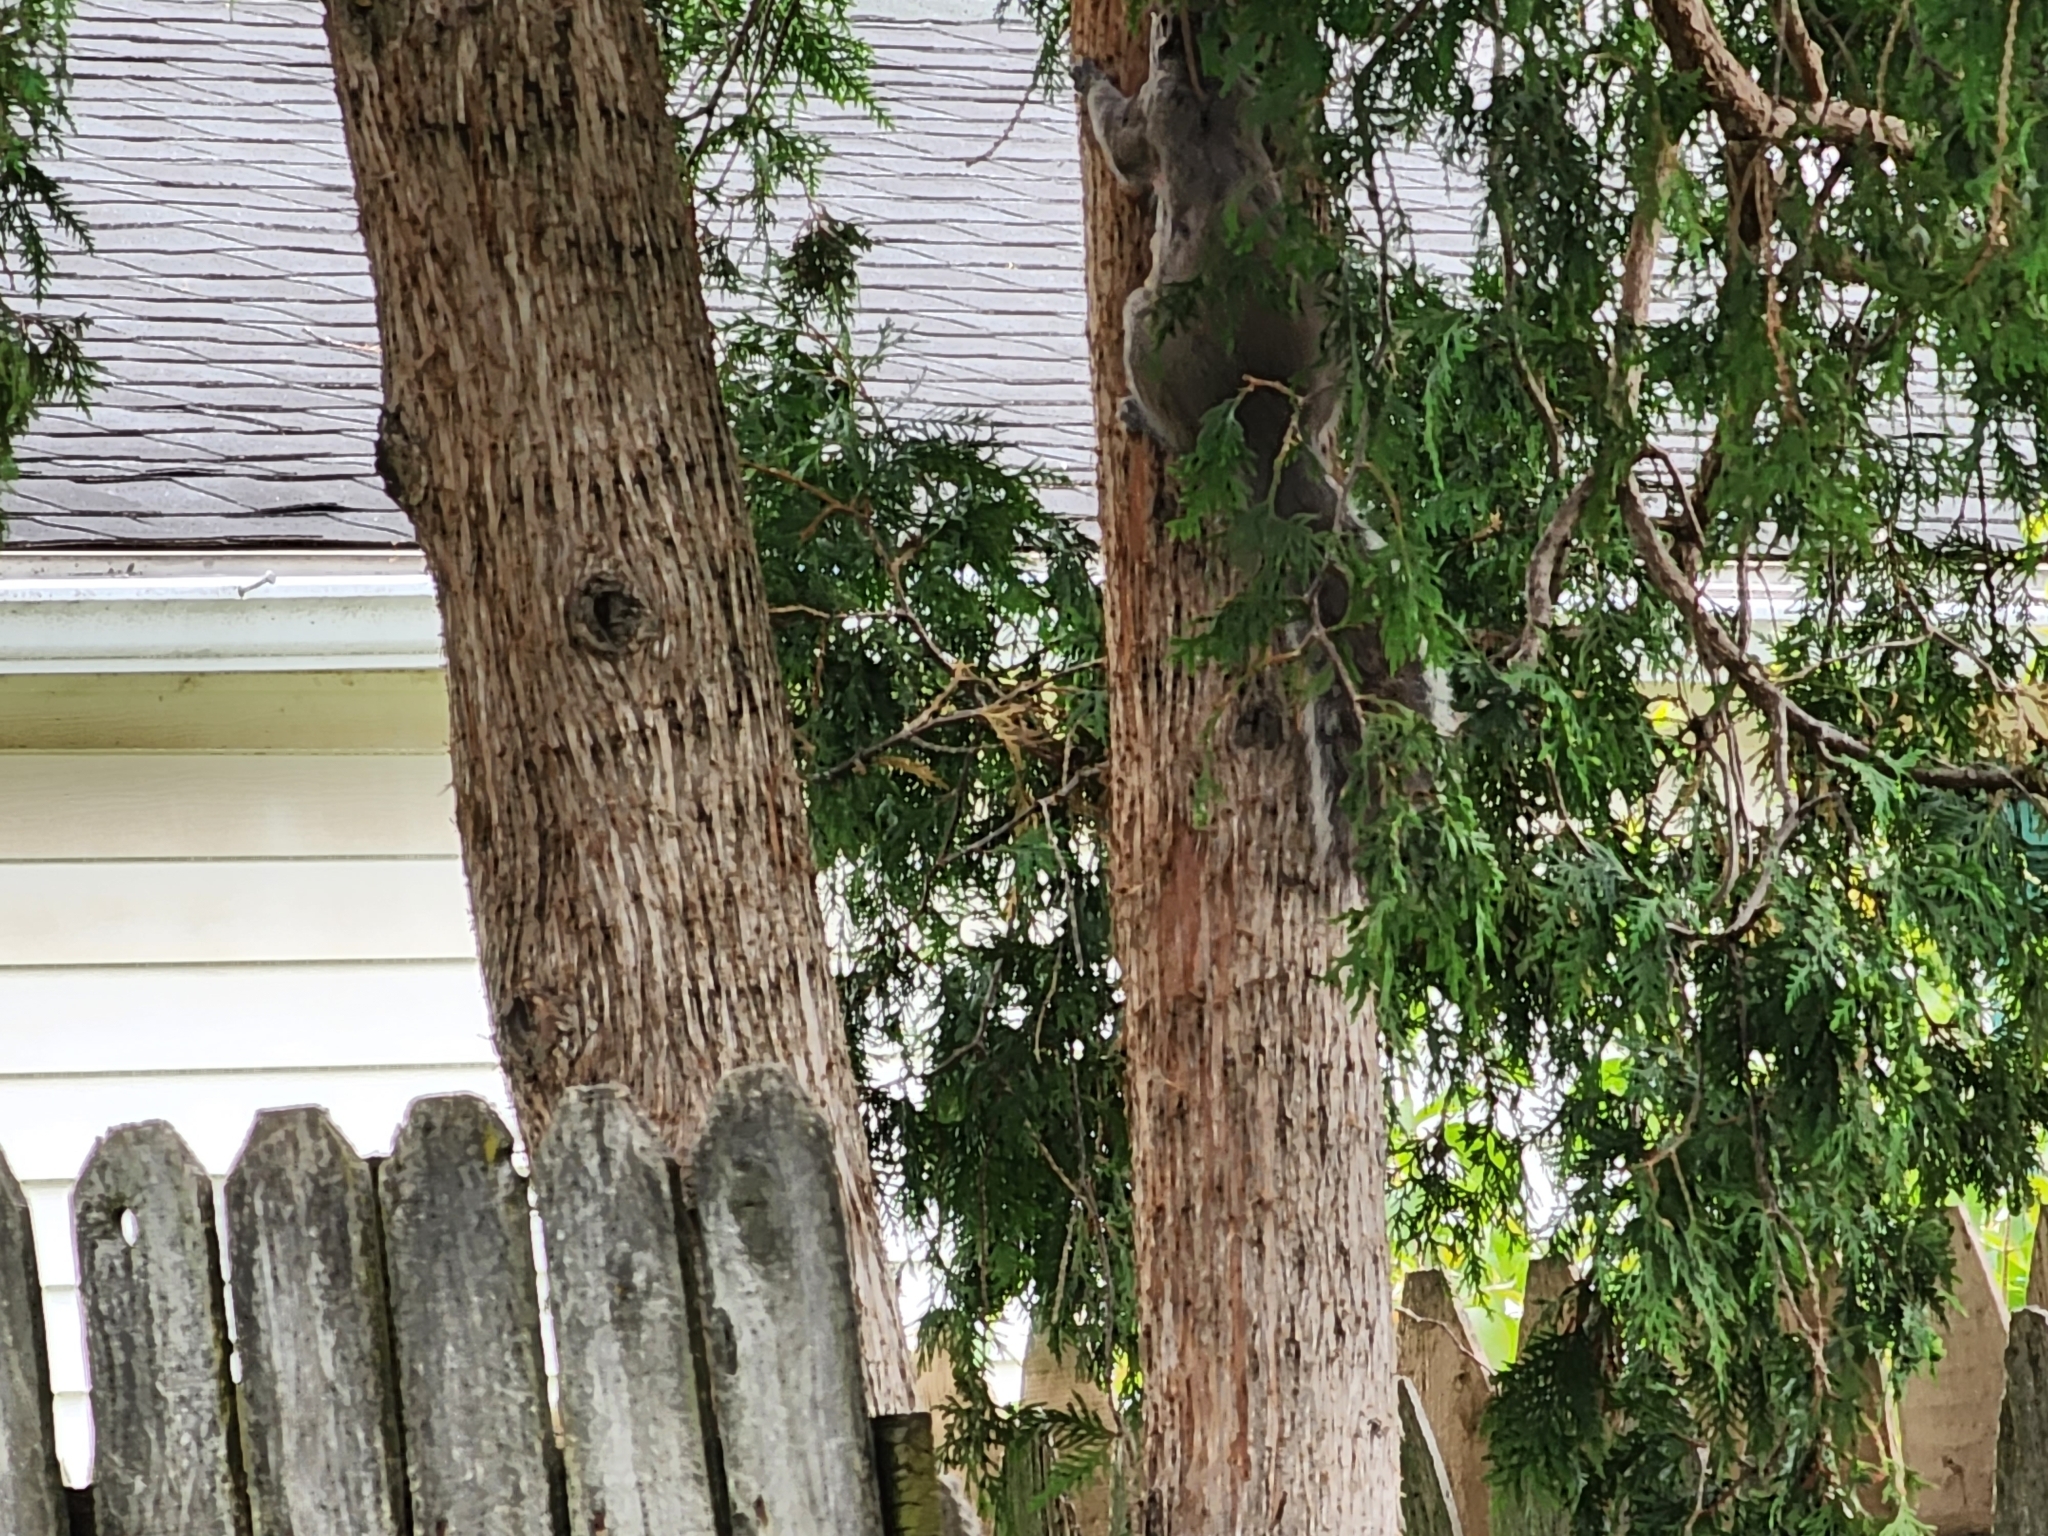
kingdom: Animalia
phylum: Chordata
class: Mammalia
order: Rodentia
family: Sciuridae
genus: Sciurus
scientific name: Sciurus carolinensis
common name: Eastern gray squirrel
